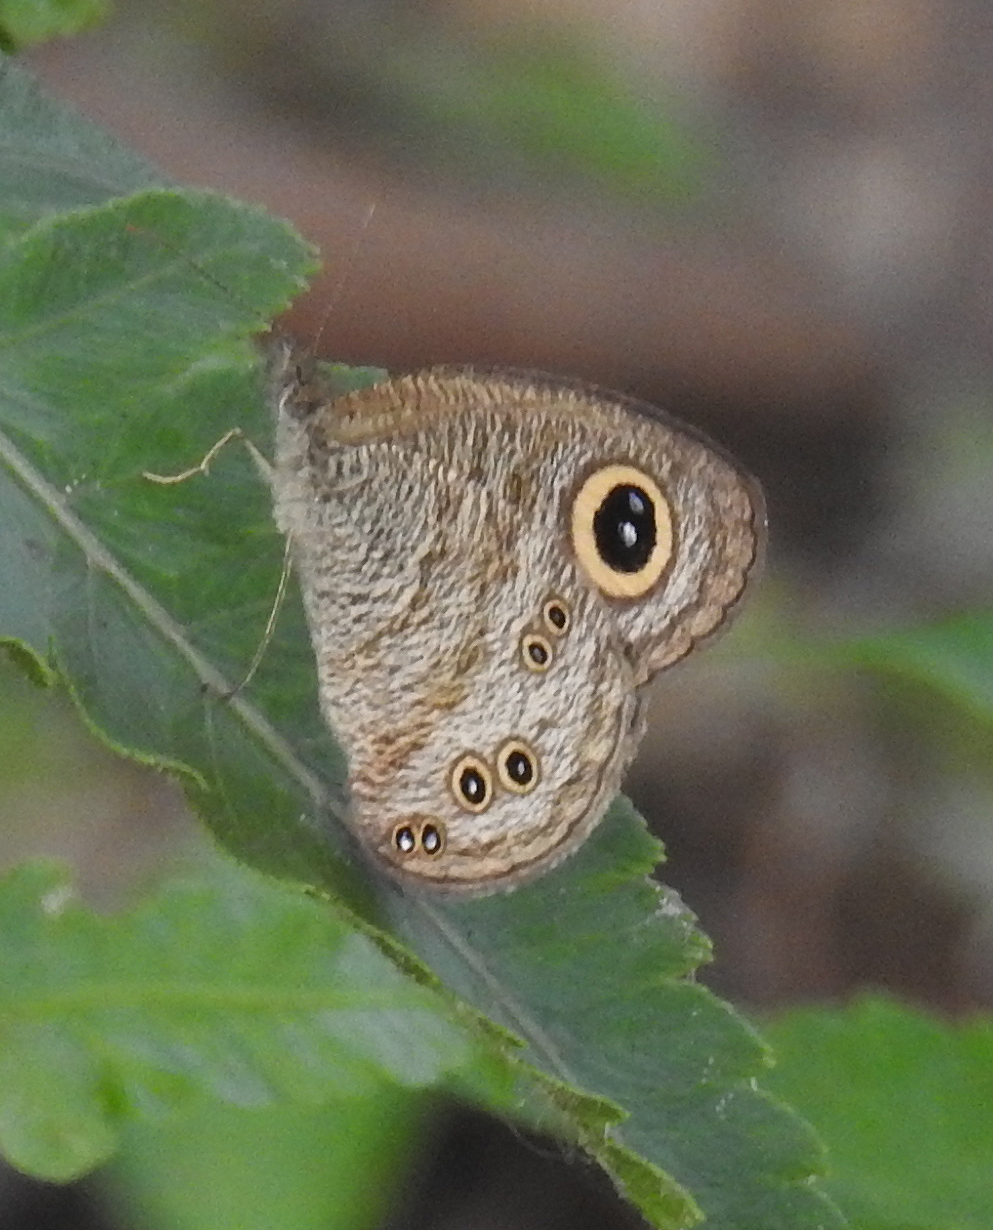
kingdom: Animalia
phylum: Arthropoda
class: Insecta
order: Lepidoptera
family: Nymphalidae
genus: Ypthima
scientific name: Ypthima baldus
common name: Common five-ring
